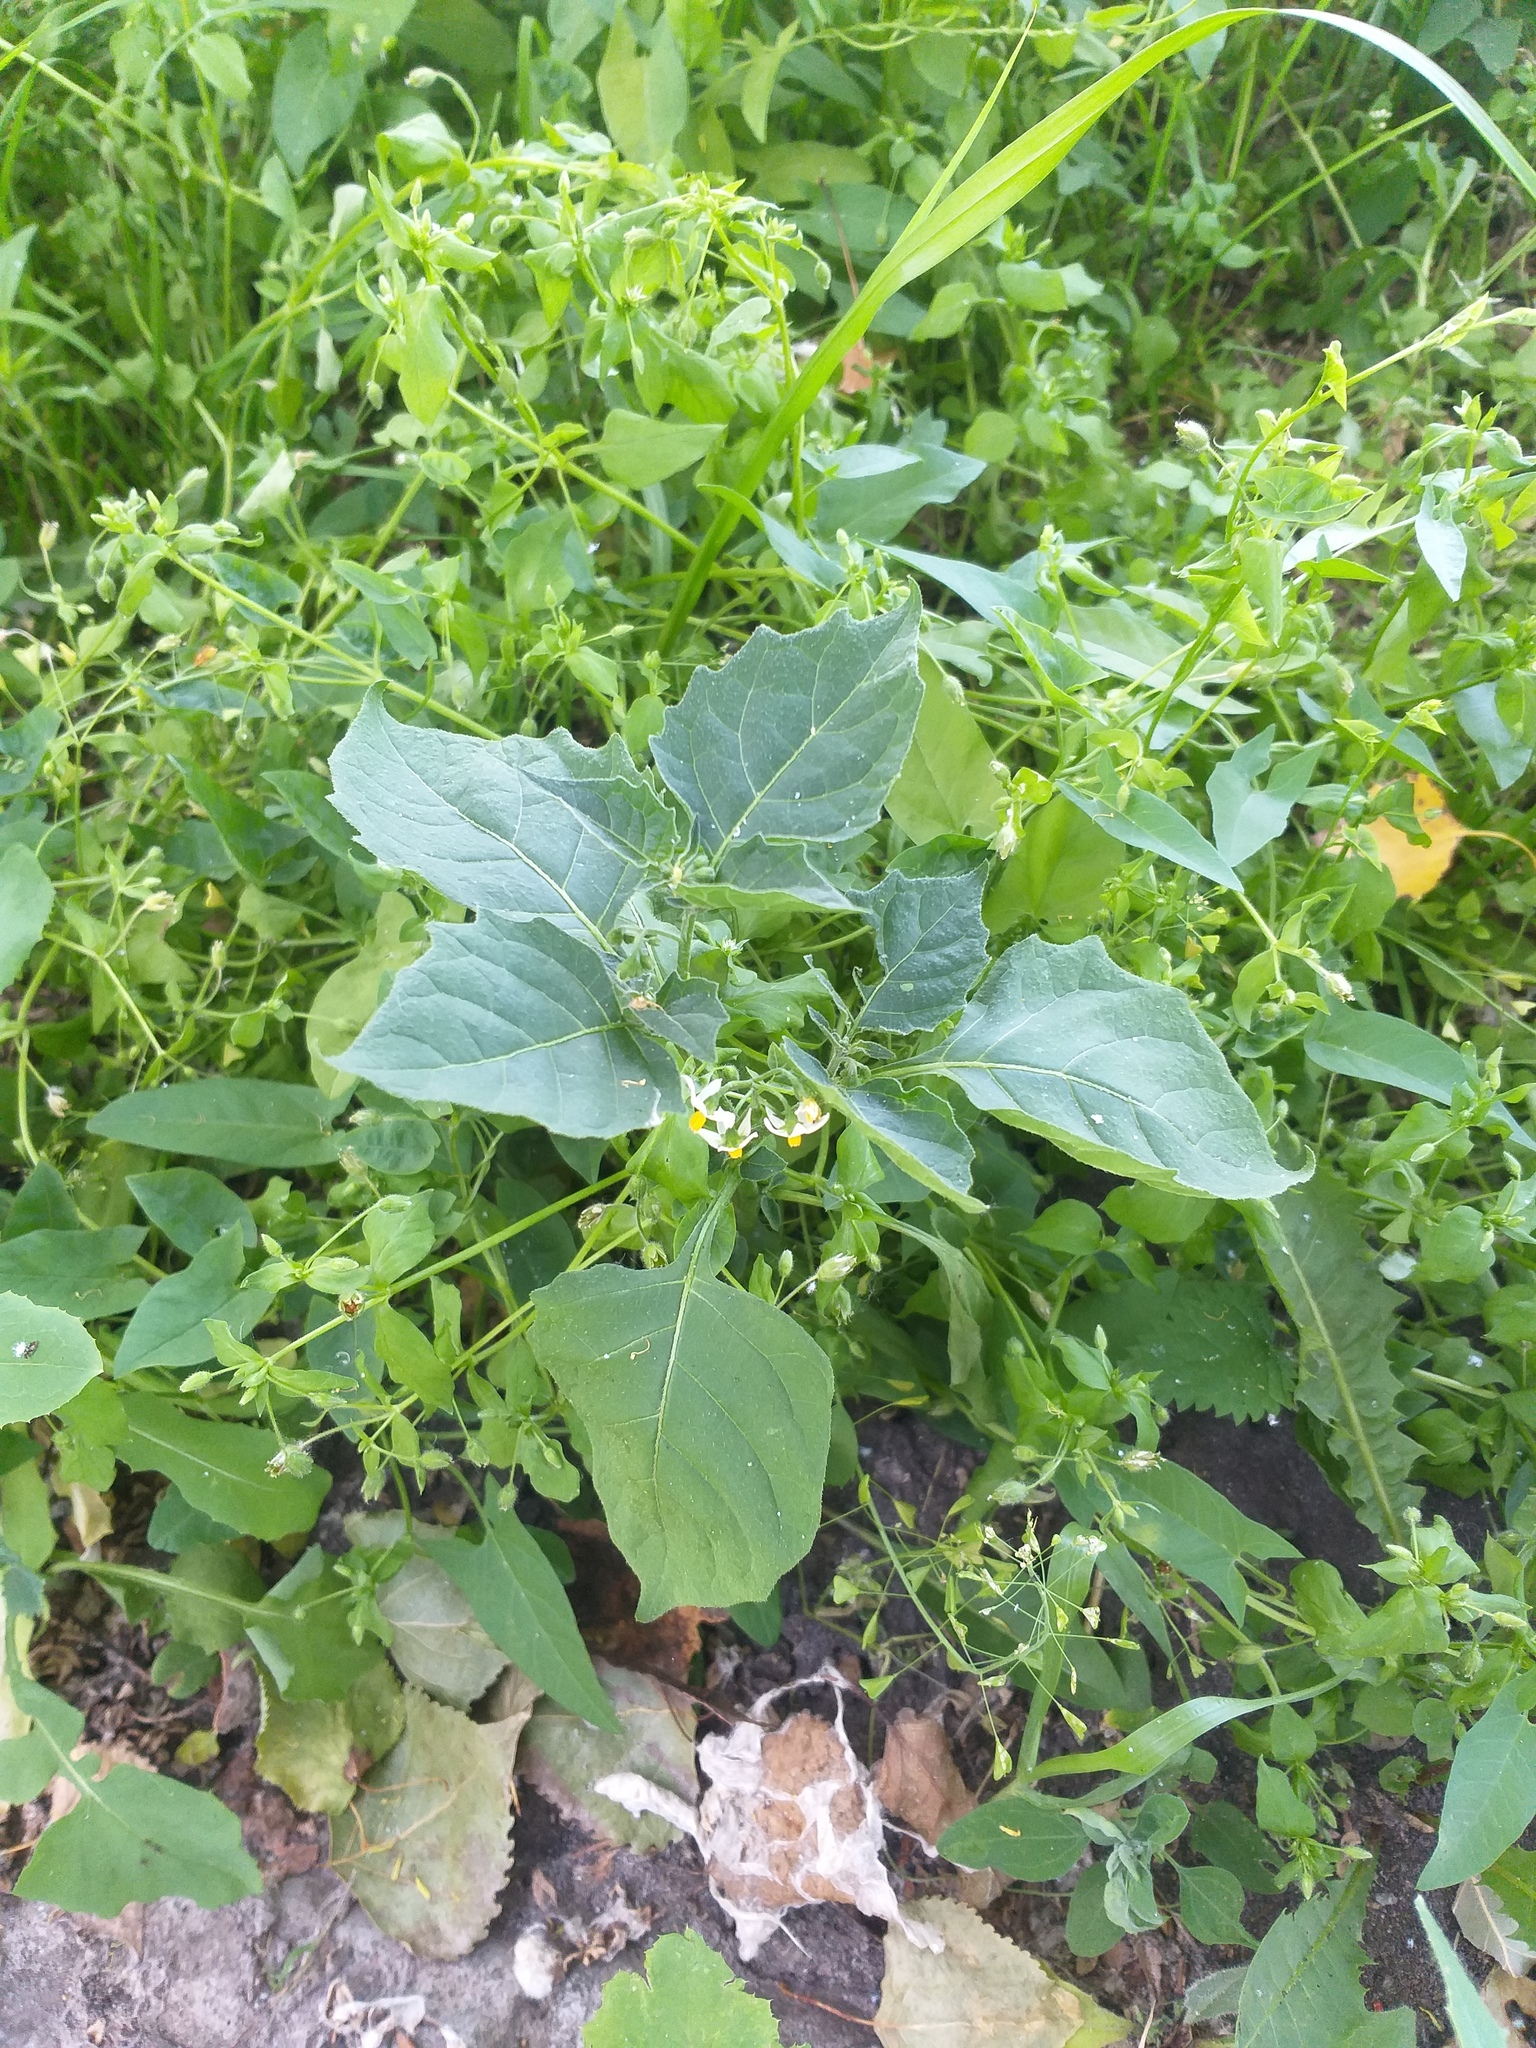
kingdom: Plantae
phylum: Tracheophyta
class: Magnoliopsida
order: Solanales
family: Solanaceae
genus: Solanum
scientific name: Solanum nigrum
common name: Black nightshade
